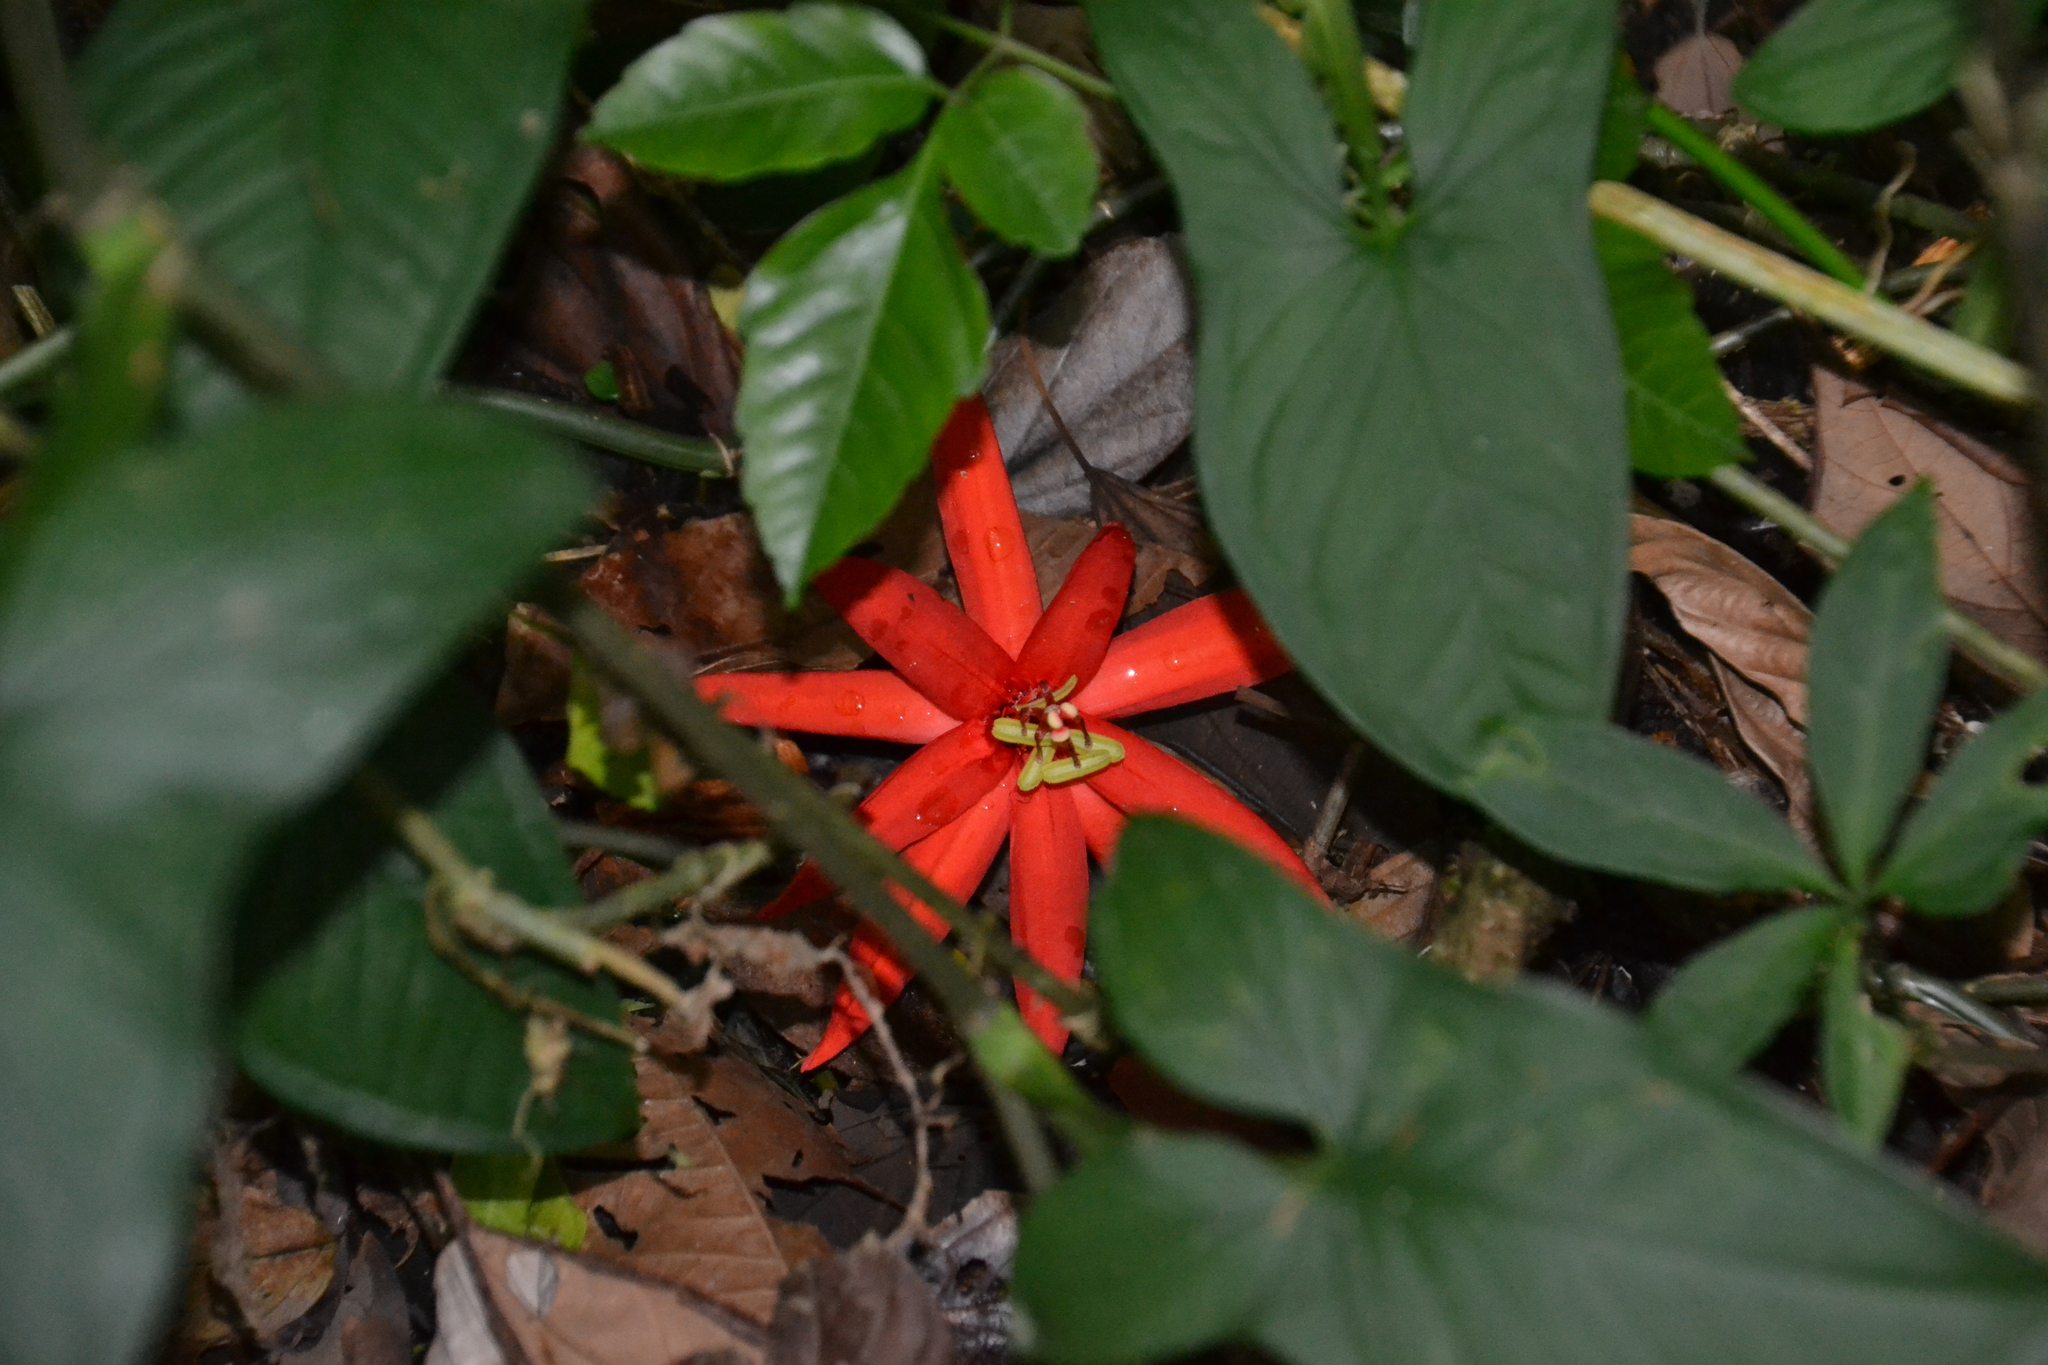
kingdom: Plantae
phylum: Tracheophyta
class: Magnoliopsida
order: Malpighiales
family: Passifloraceae
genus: Passiflora
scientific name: Passiflora vitifolia
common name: Perfumed passionflower
